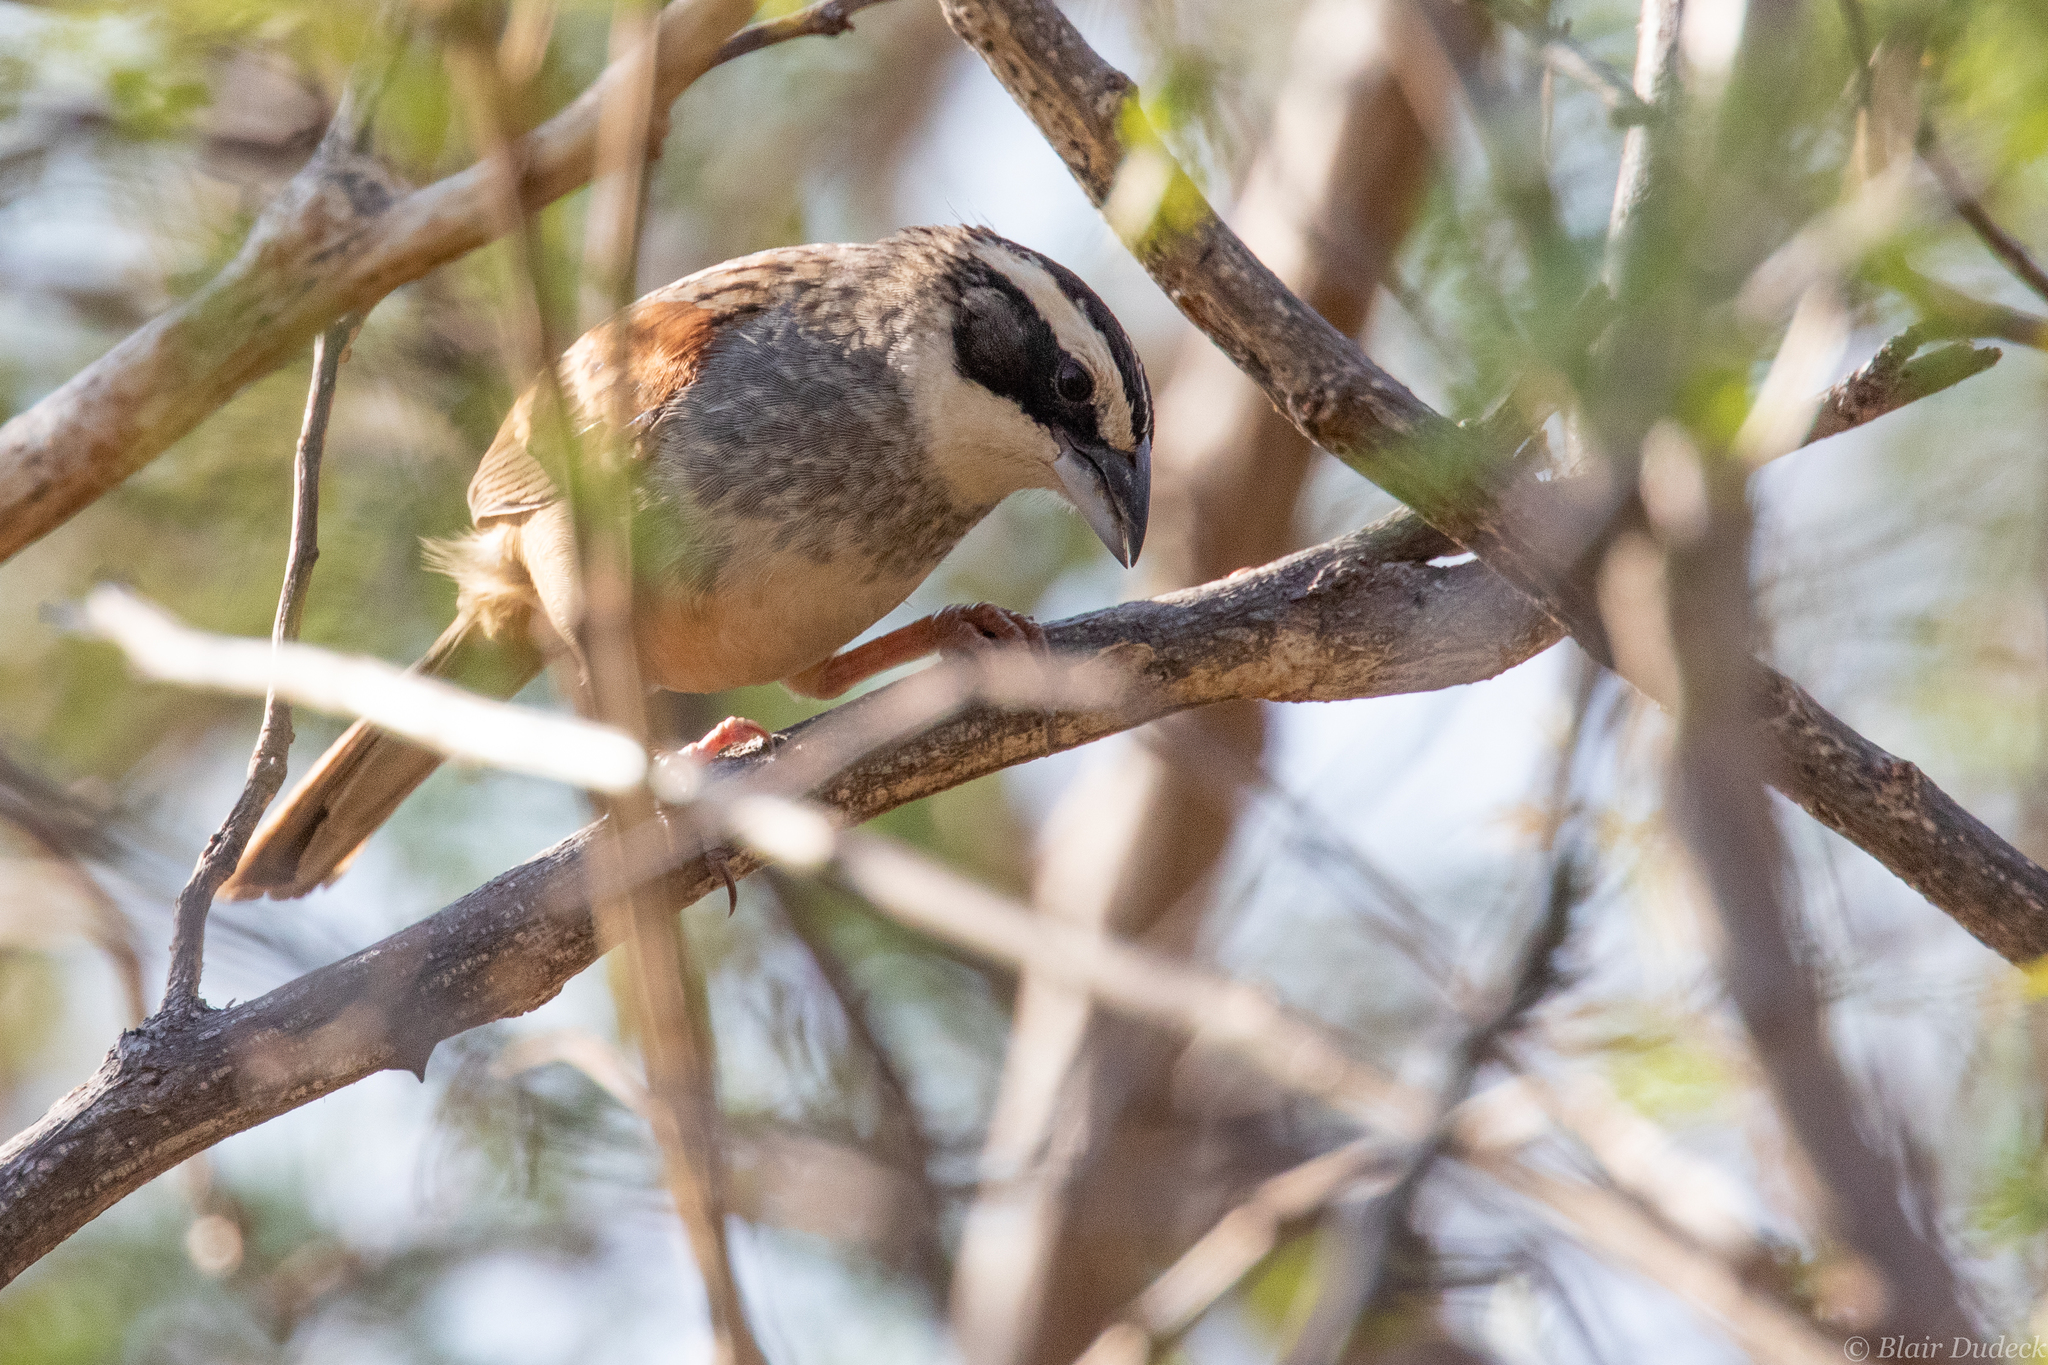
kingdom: Animalia
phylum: Chordata
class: Aves
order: Passeriformes
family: Passerellidae
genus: Peucaea
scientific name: Peucaea ruficauda
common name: Stripe-headed sparrow
